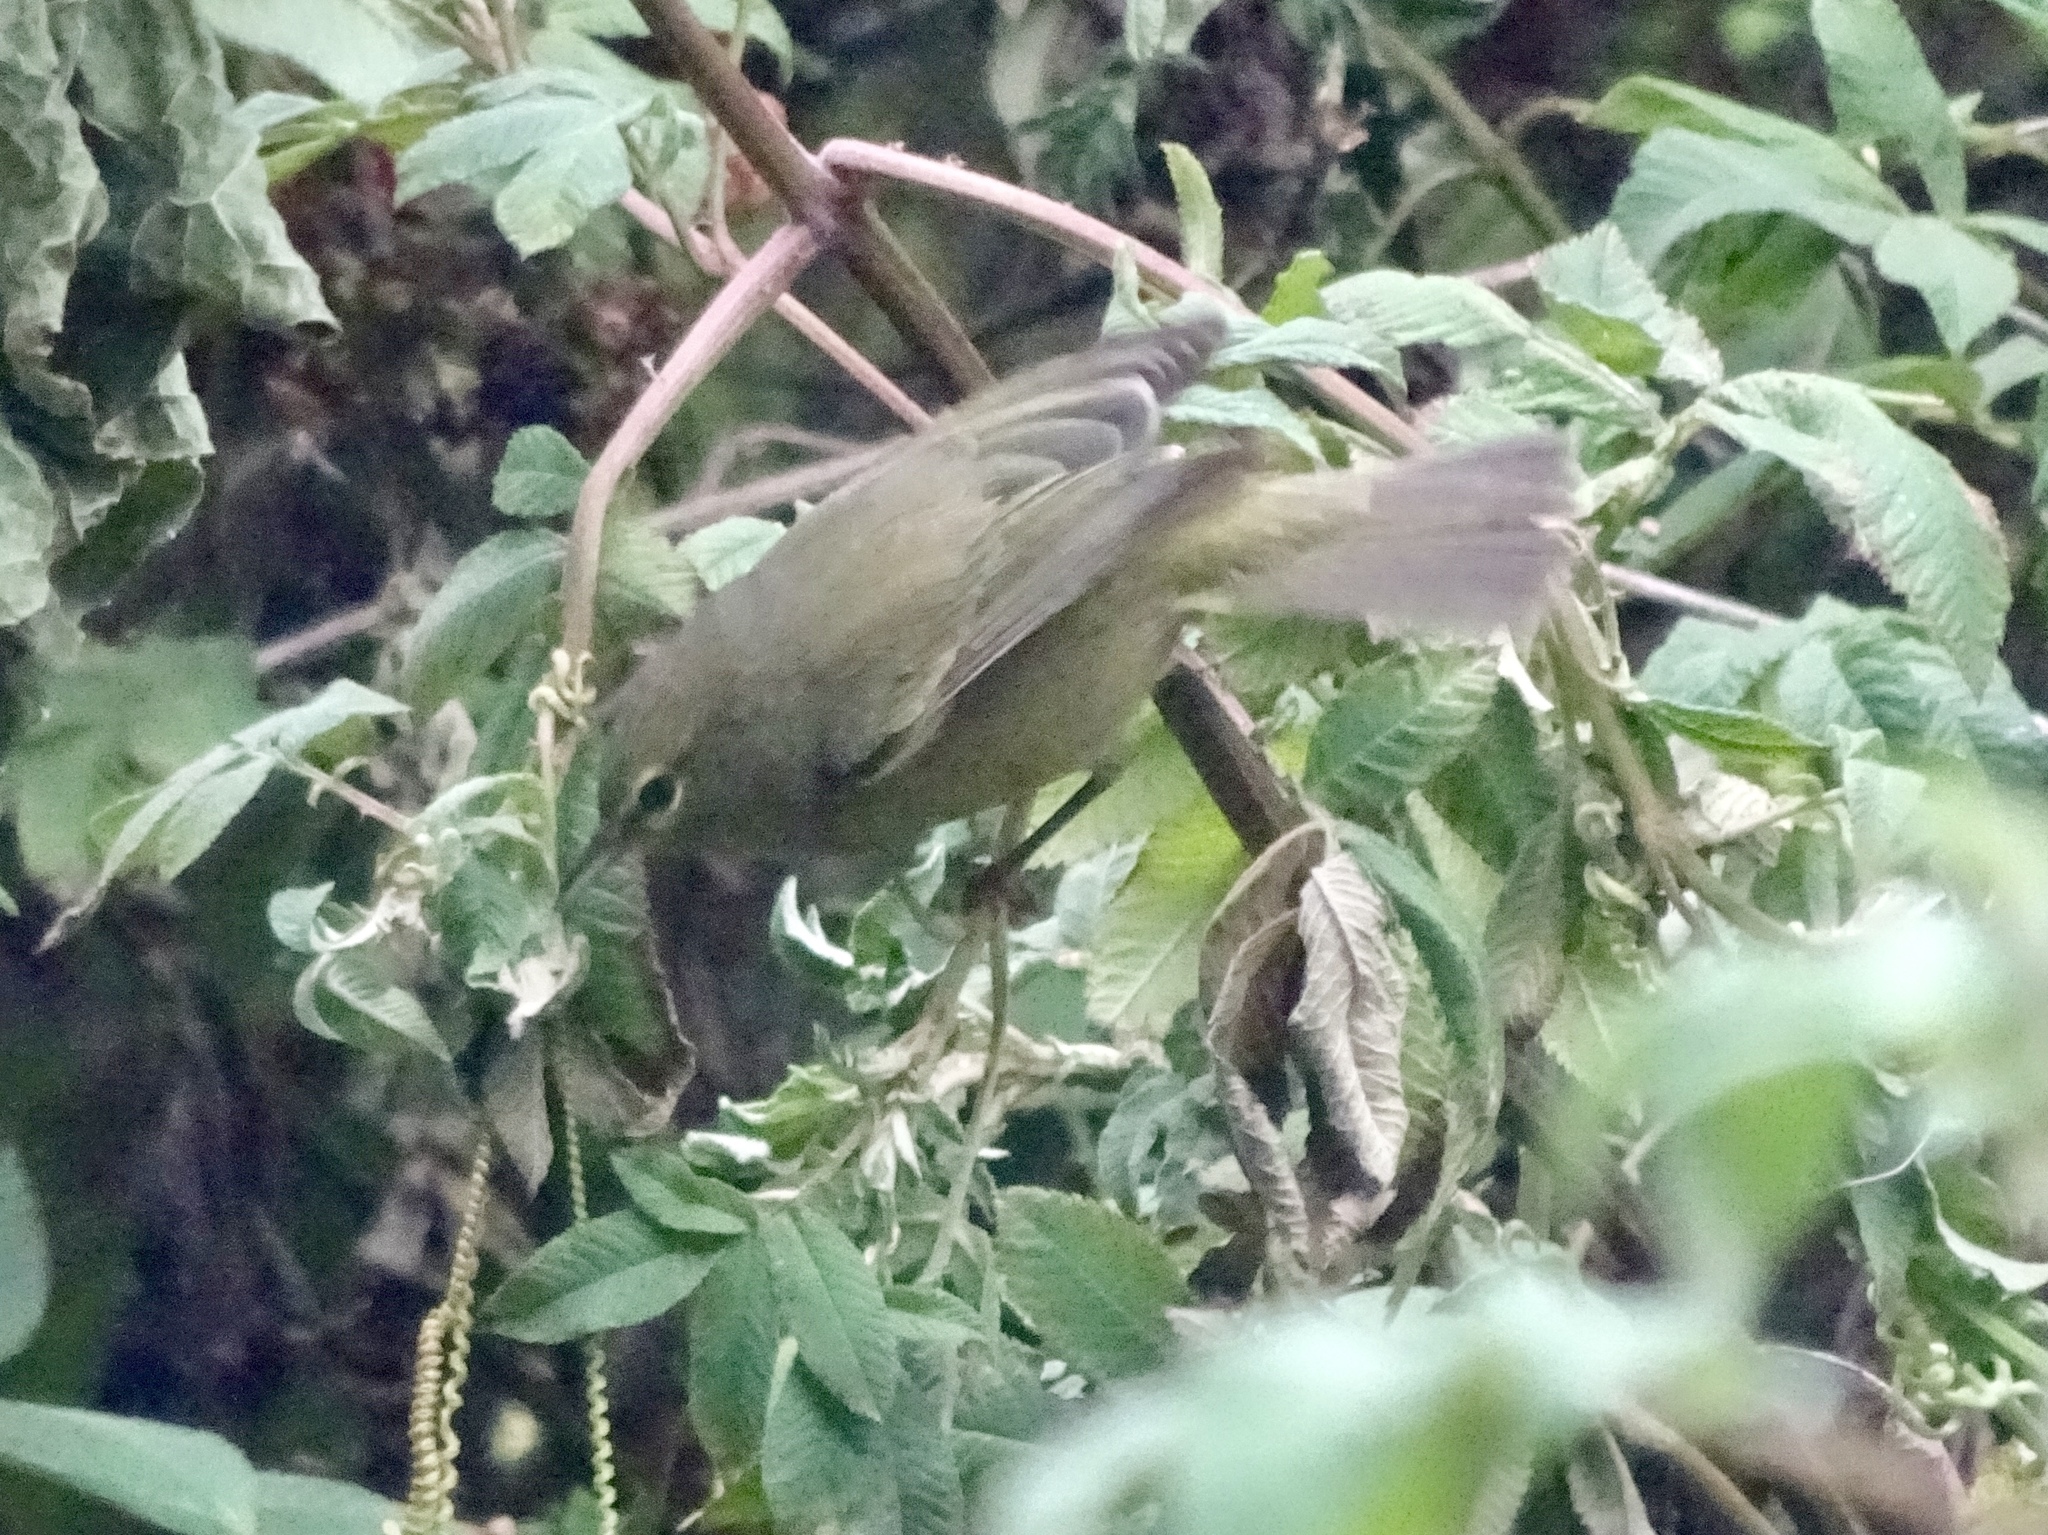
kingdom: Animalia
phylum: Chordata
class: Aves
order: Passeriformes
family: Parulidae
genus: Leiothlypis
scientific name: Leiothlypis celata
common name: Orange-crowned warbler
